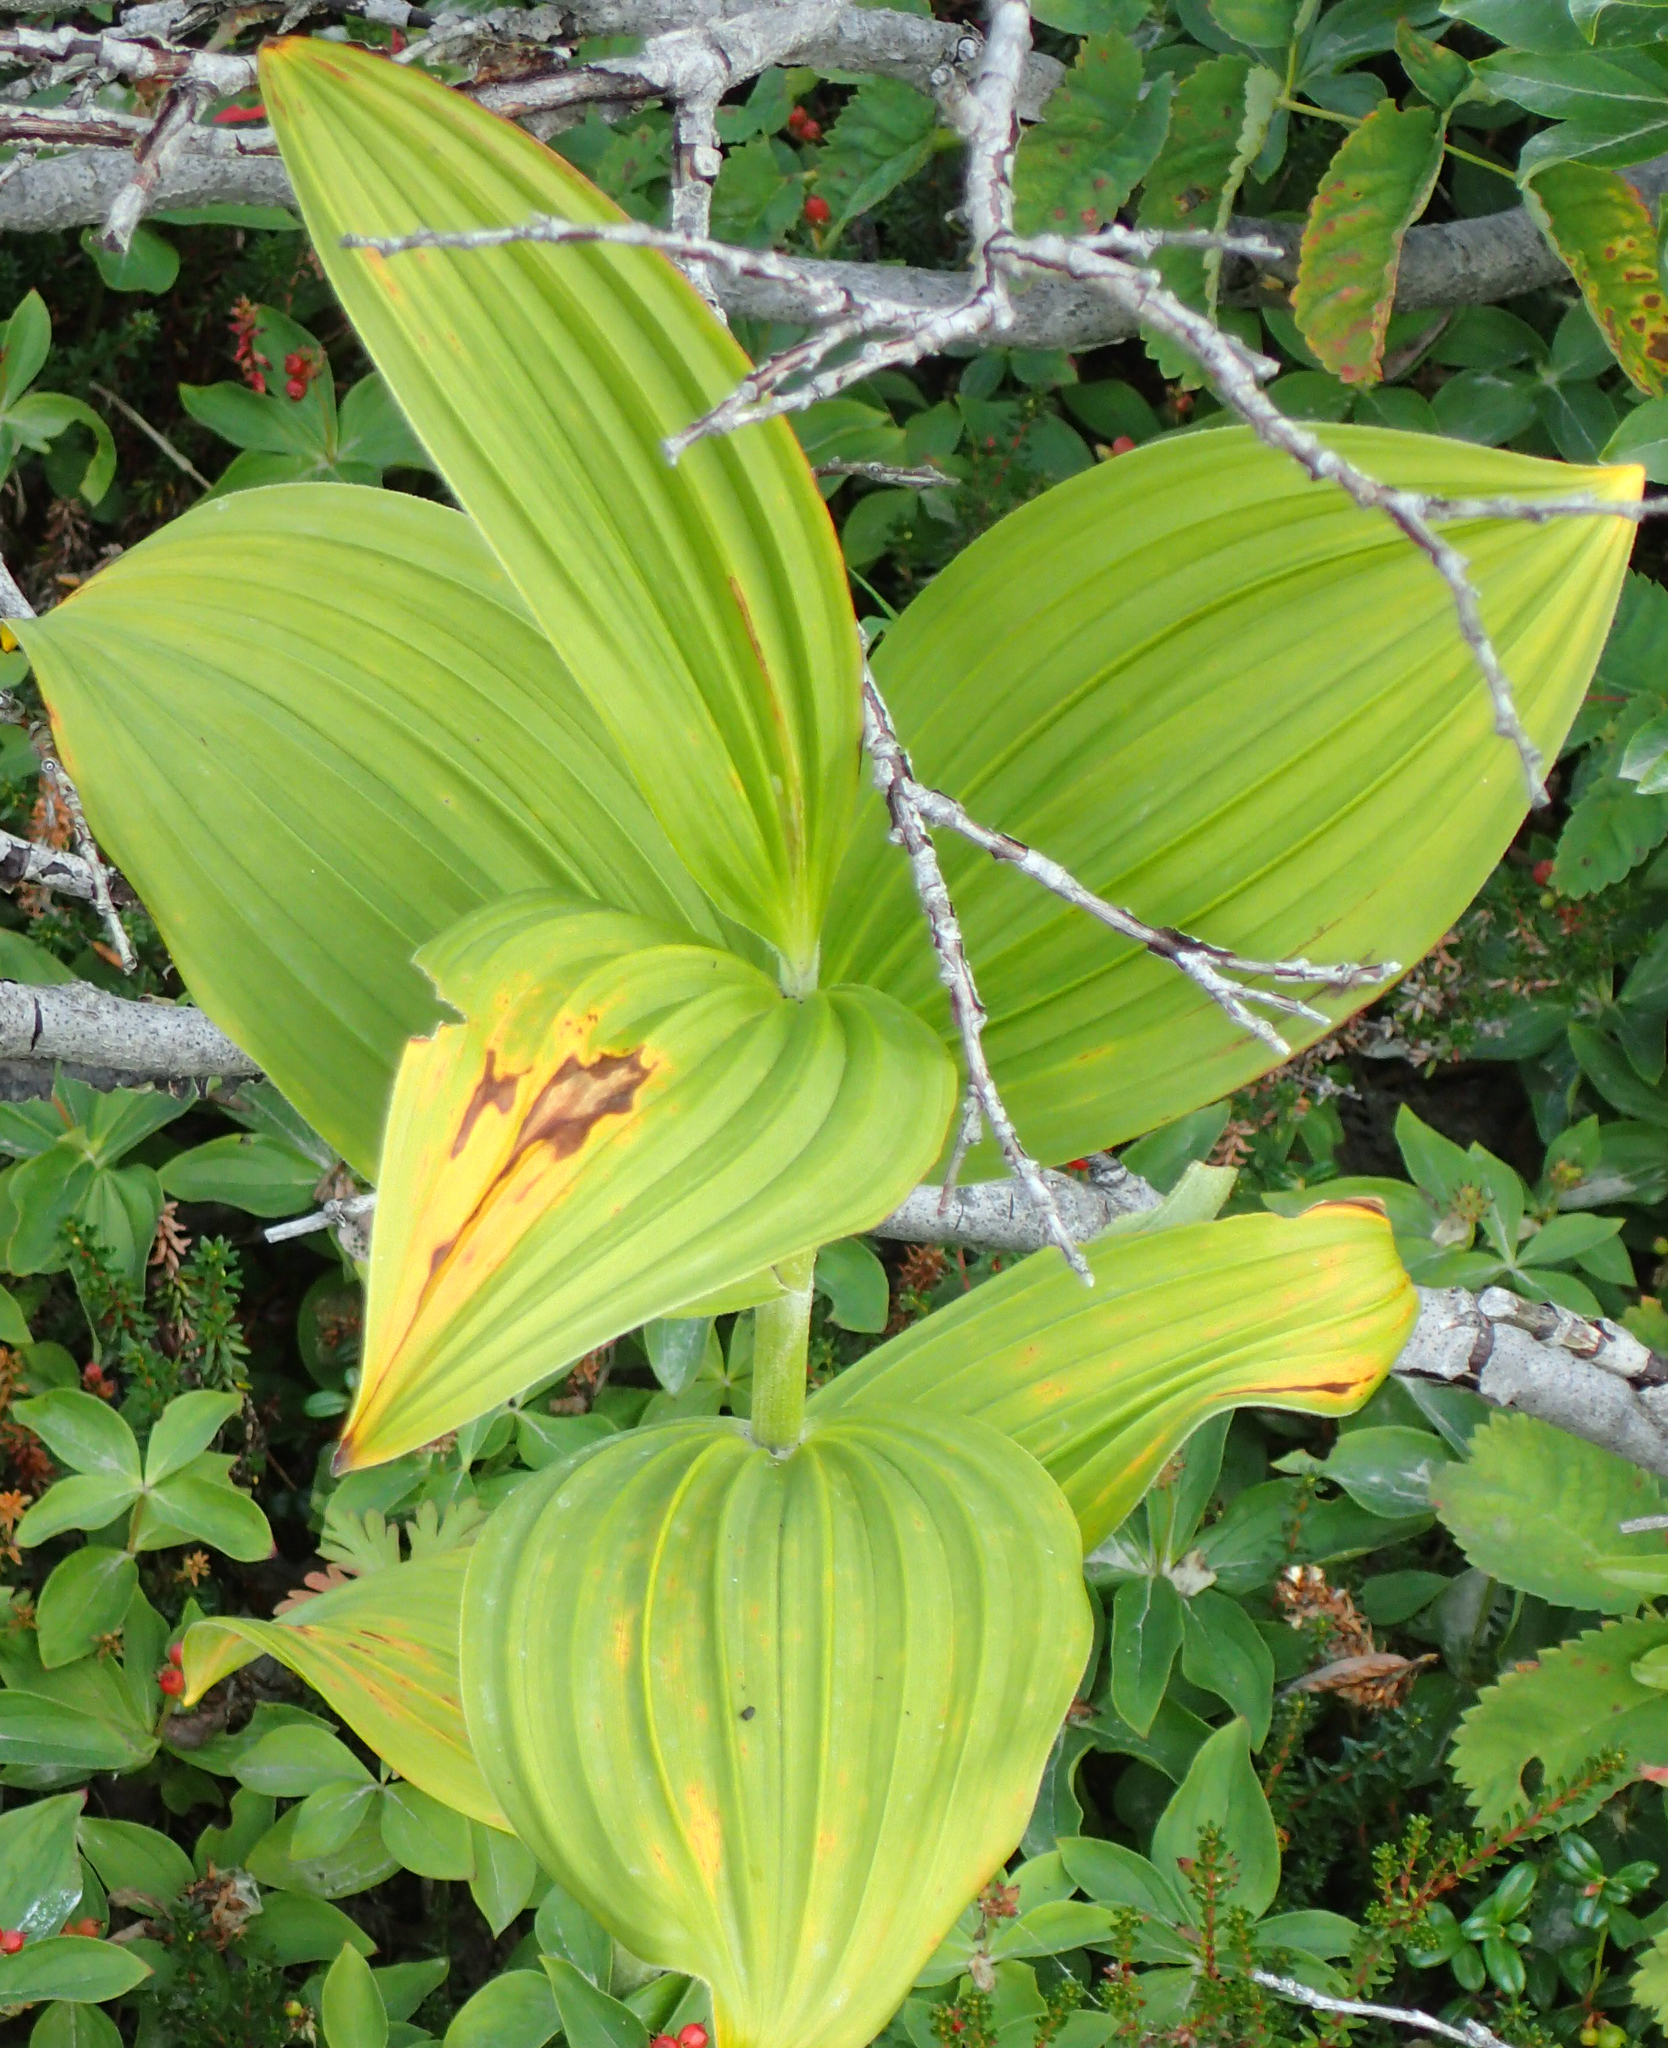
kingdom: Plantae
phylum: Tracheophyta
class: Liliopsida
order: Liliales
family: Melanthiaceae
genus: Veratrum
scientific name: Veratrum viride
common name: American false hellebore
